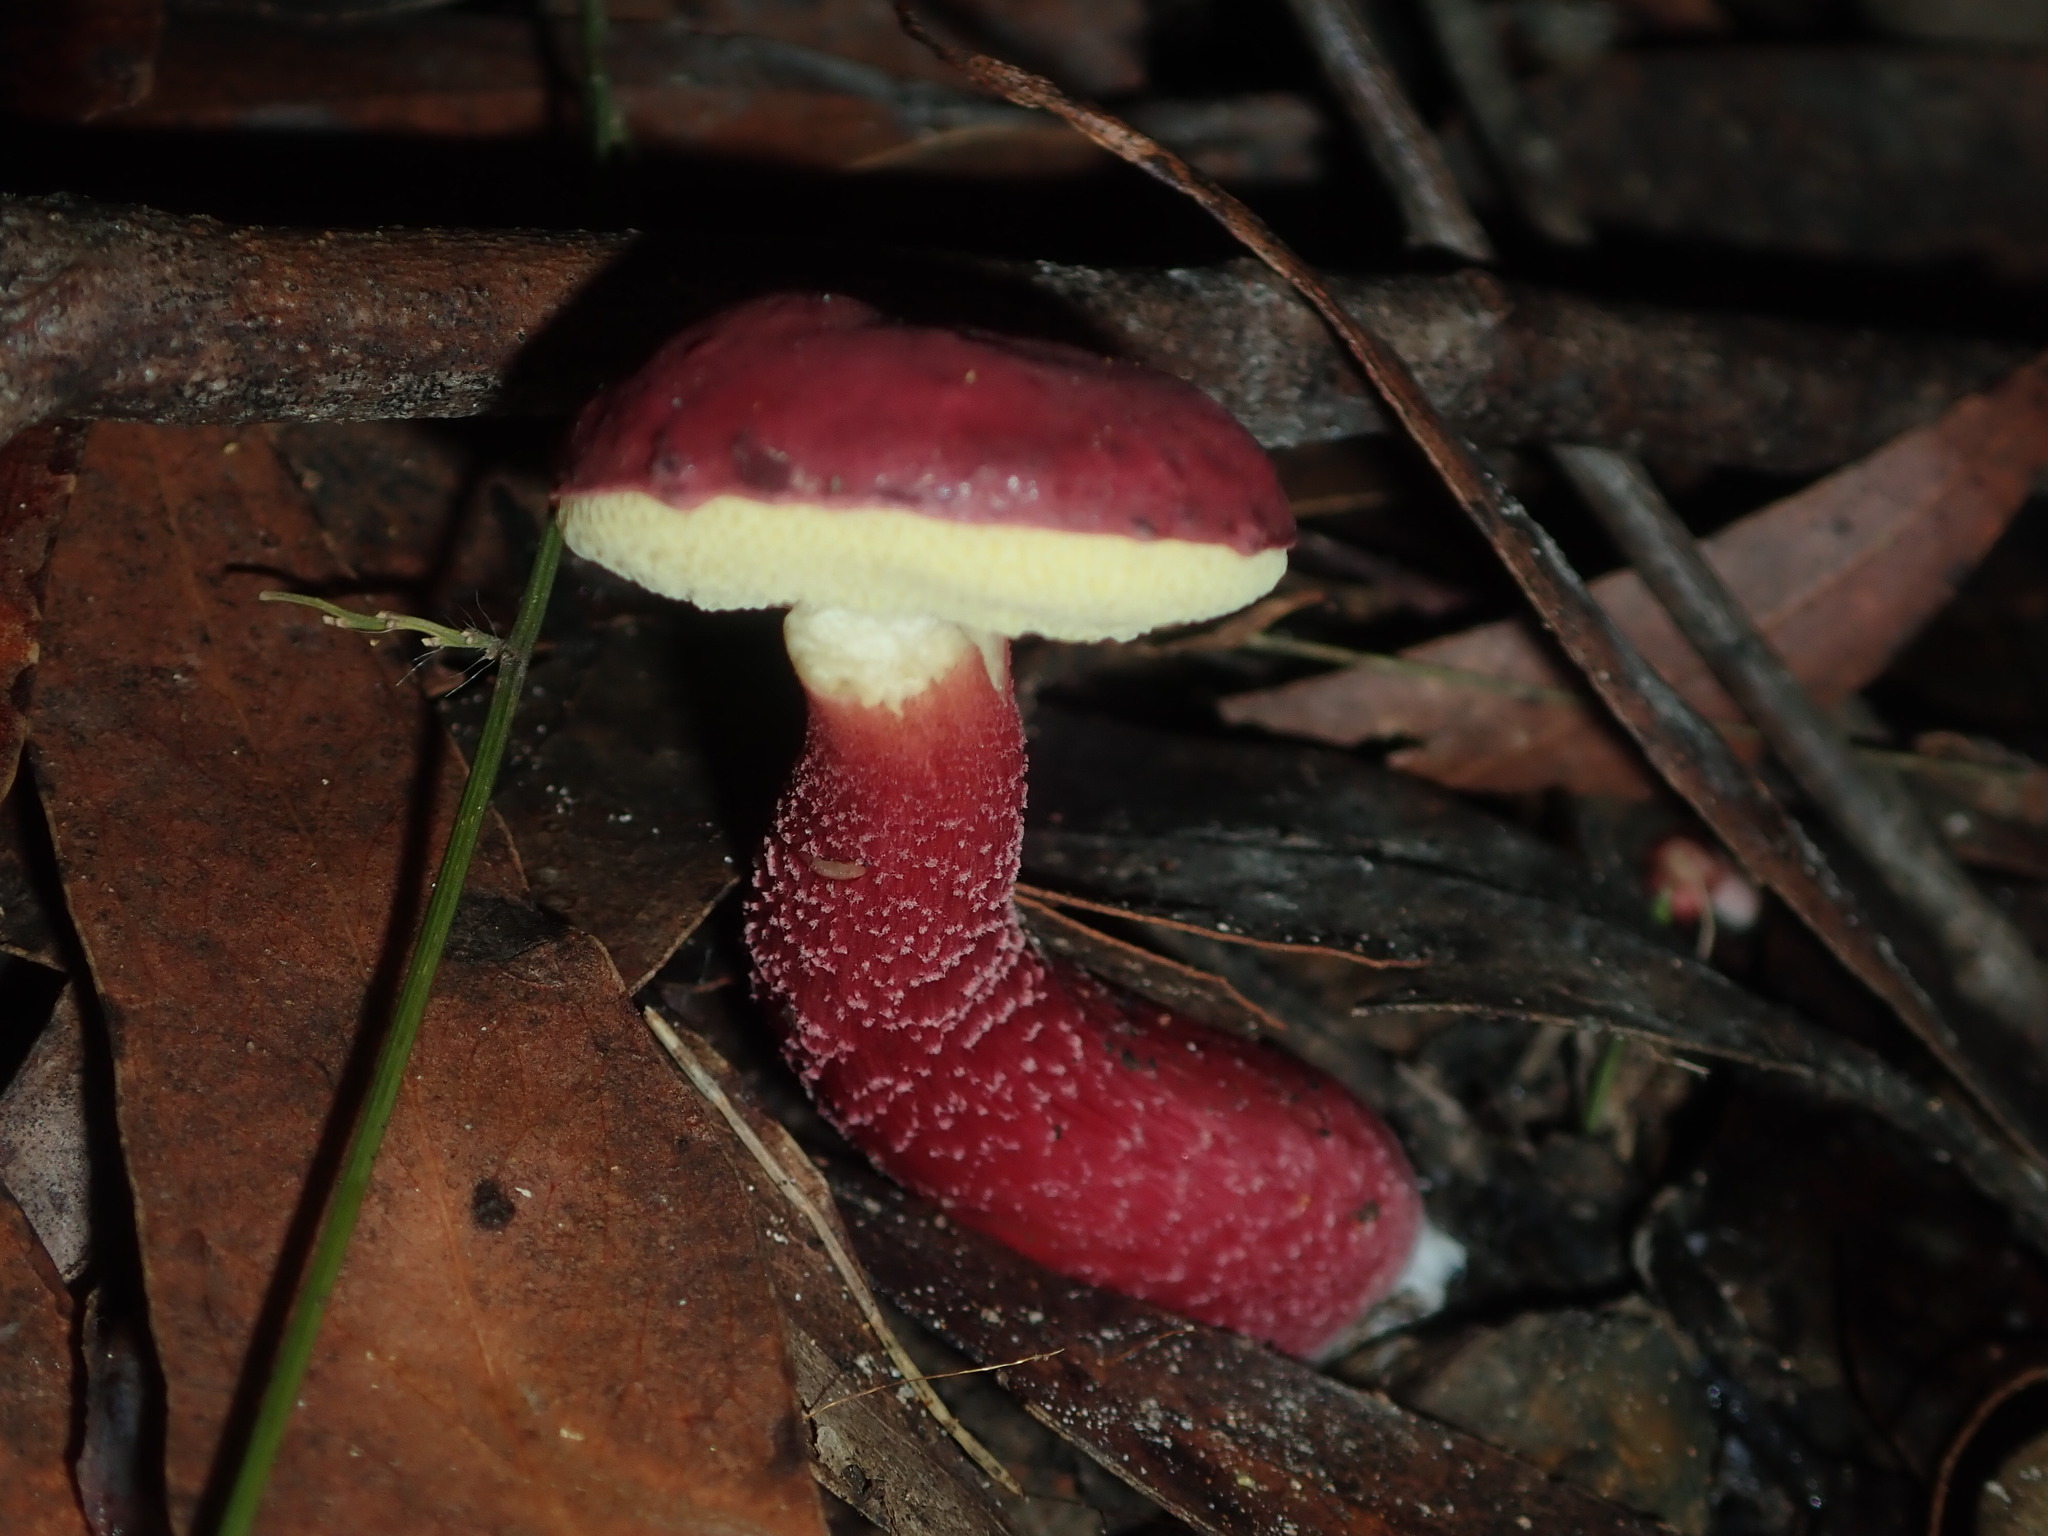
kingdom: Fungi
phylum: Basidiomycota
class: Agaricomycetes
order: Boletales
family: Boletaceae
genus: Boletellus
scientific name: Boletellus obscurecoccineus
